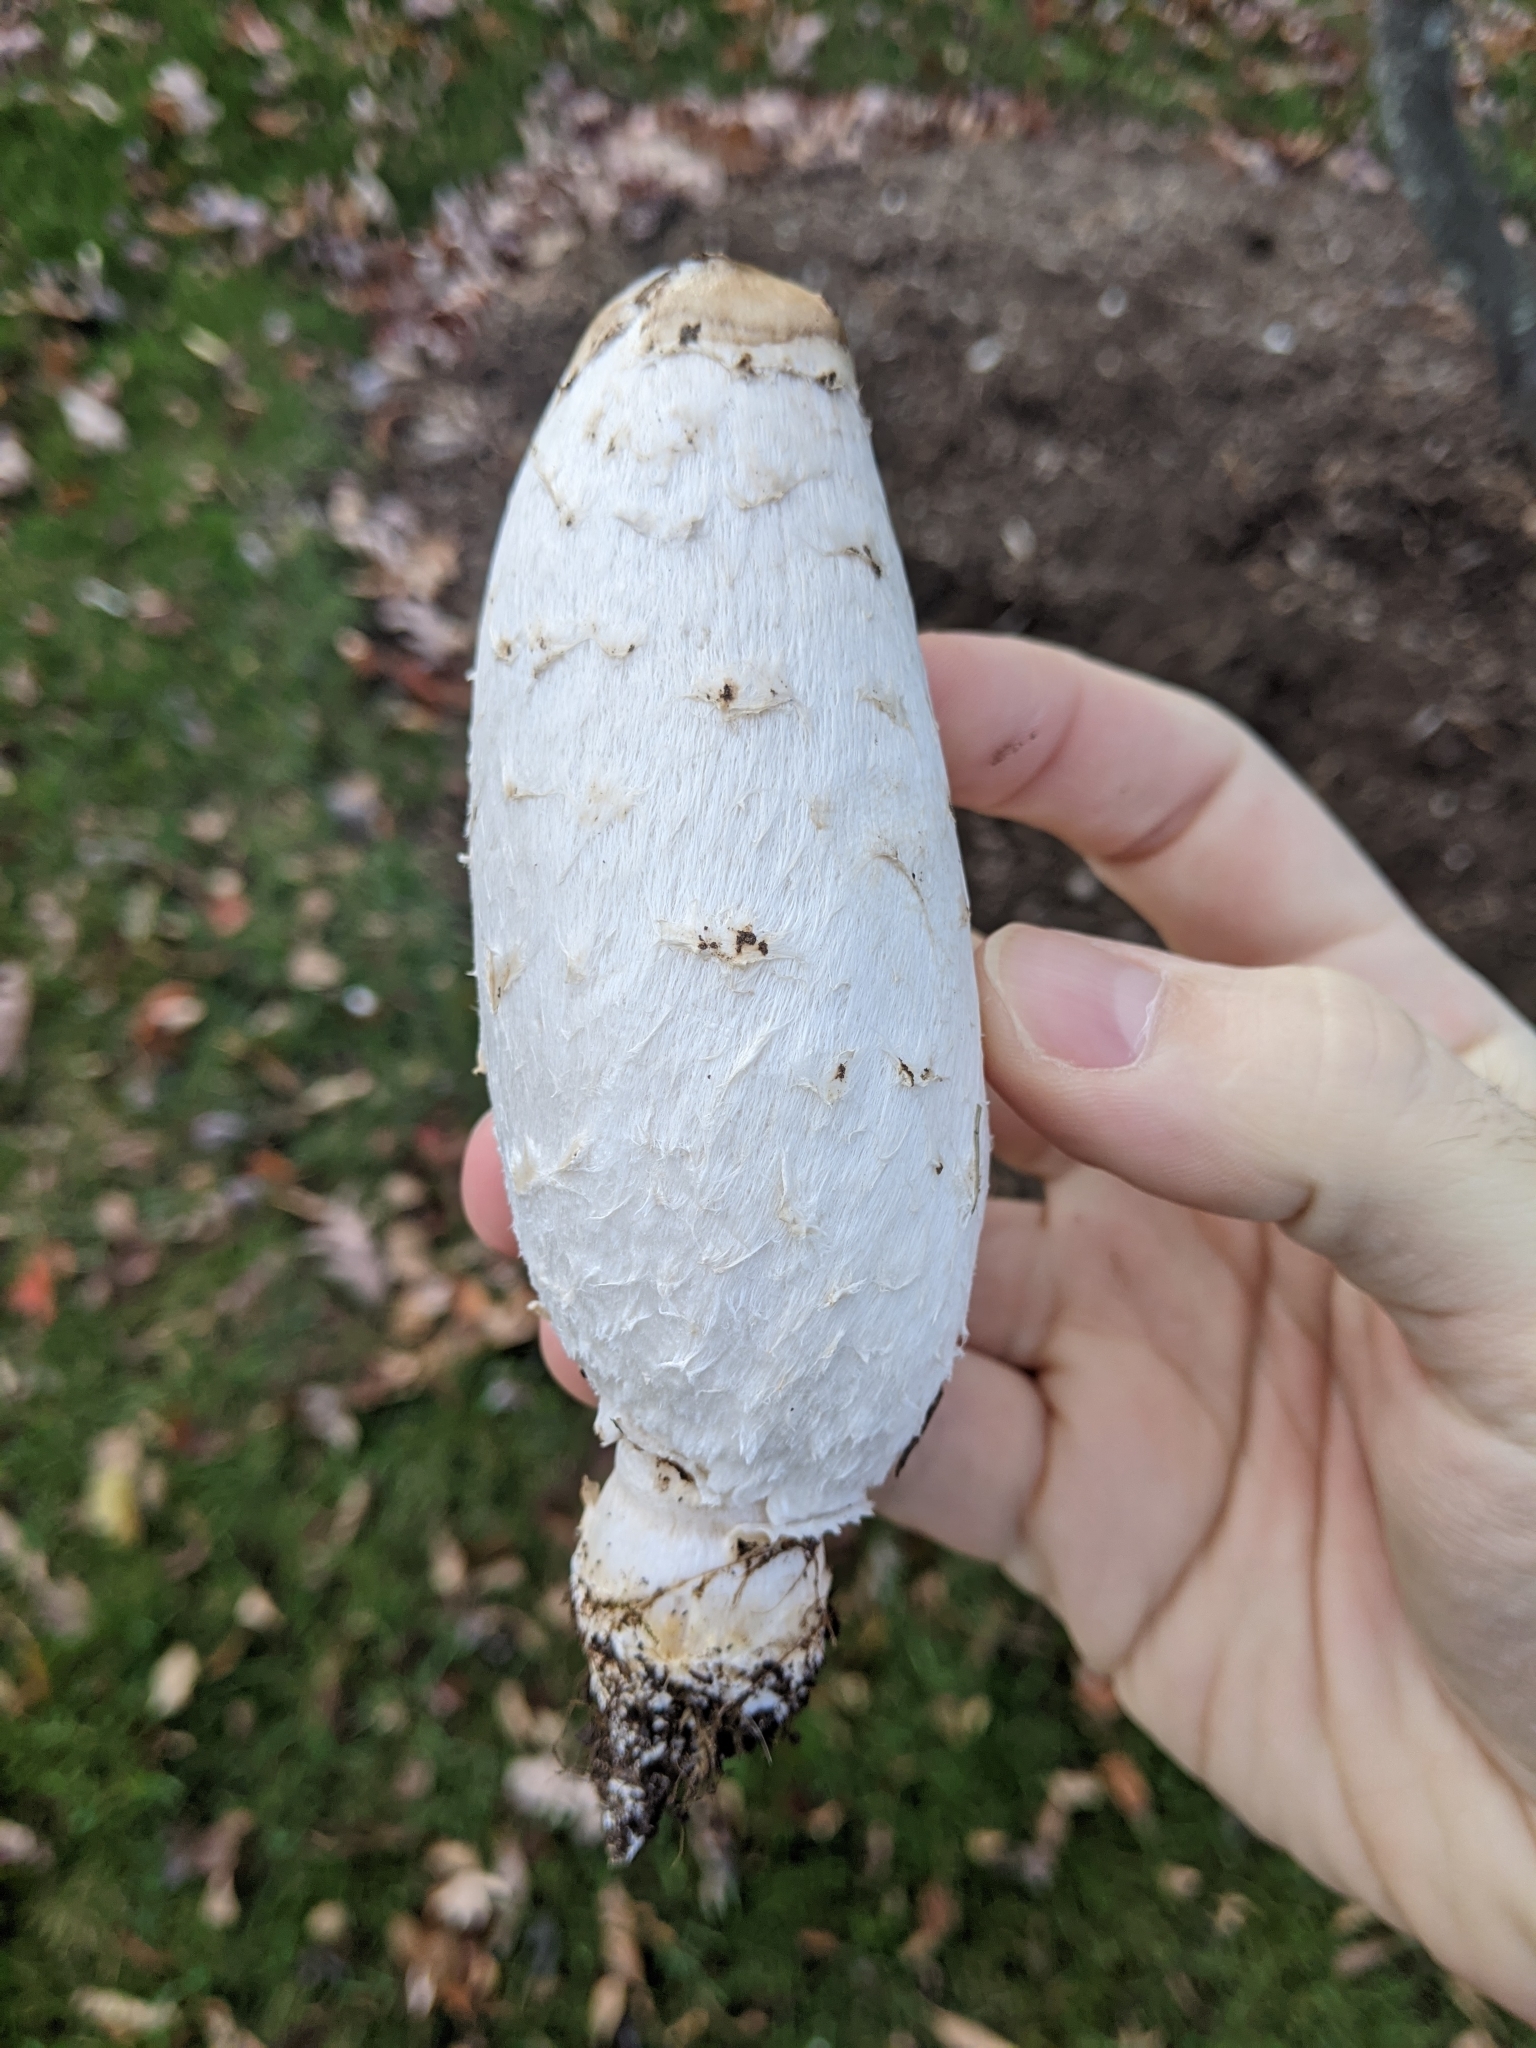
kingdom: Fungi
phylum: Basidiomycota
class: Agaricomycetes
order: Agaricales
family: Agaricaceae
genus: Coprinus
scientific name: Coprinus comatus
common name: Lawyer's wig
